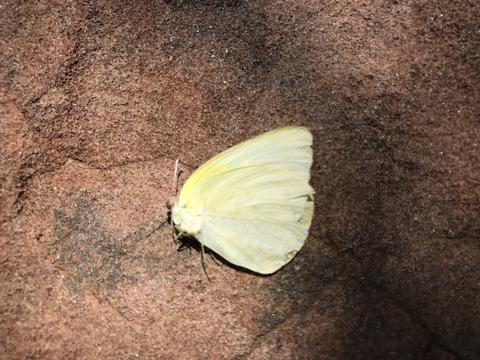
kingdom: Animalia
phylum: Arthropoda
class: Insecta
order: Lepidoptera
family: Pieridae
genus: Kricogonia
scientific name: Kricogonia lyside
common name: Guayacan sulphur,
